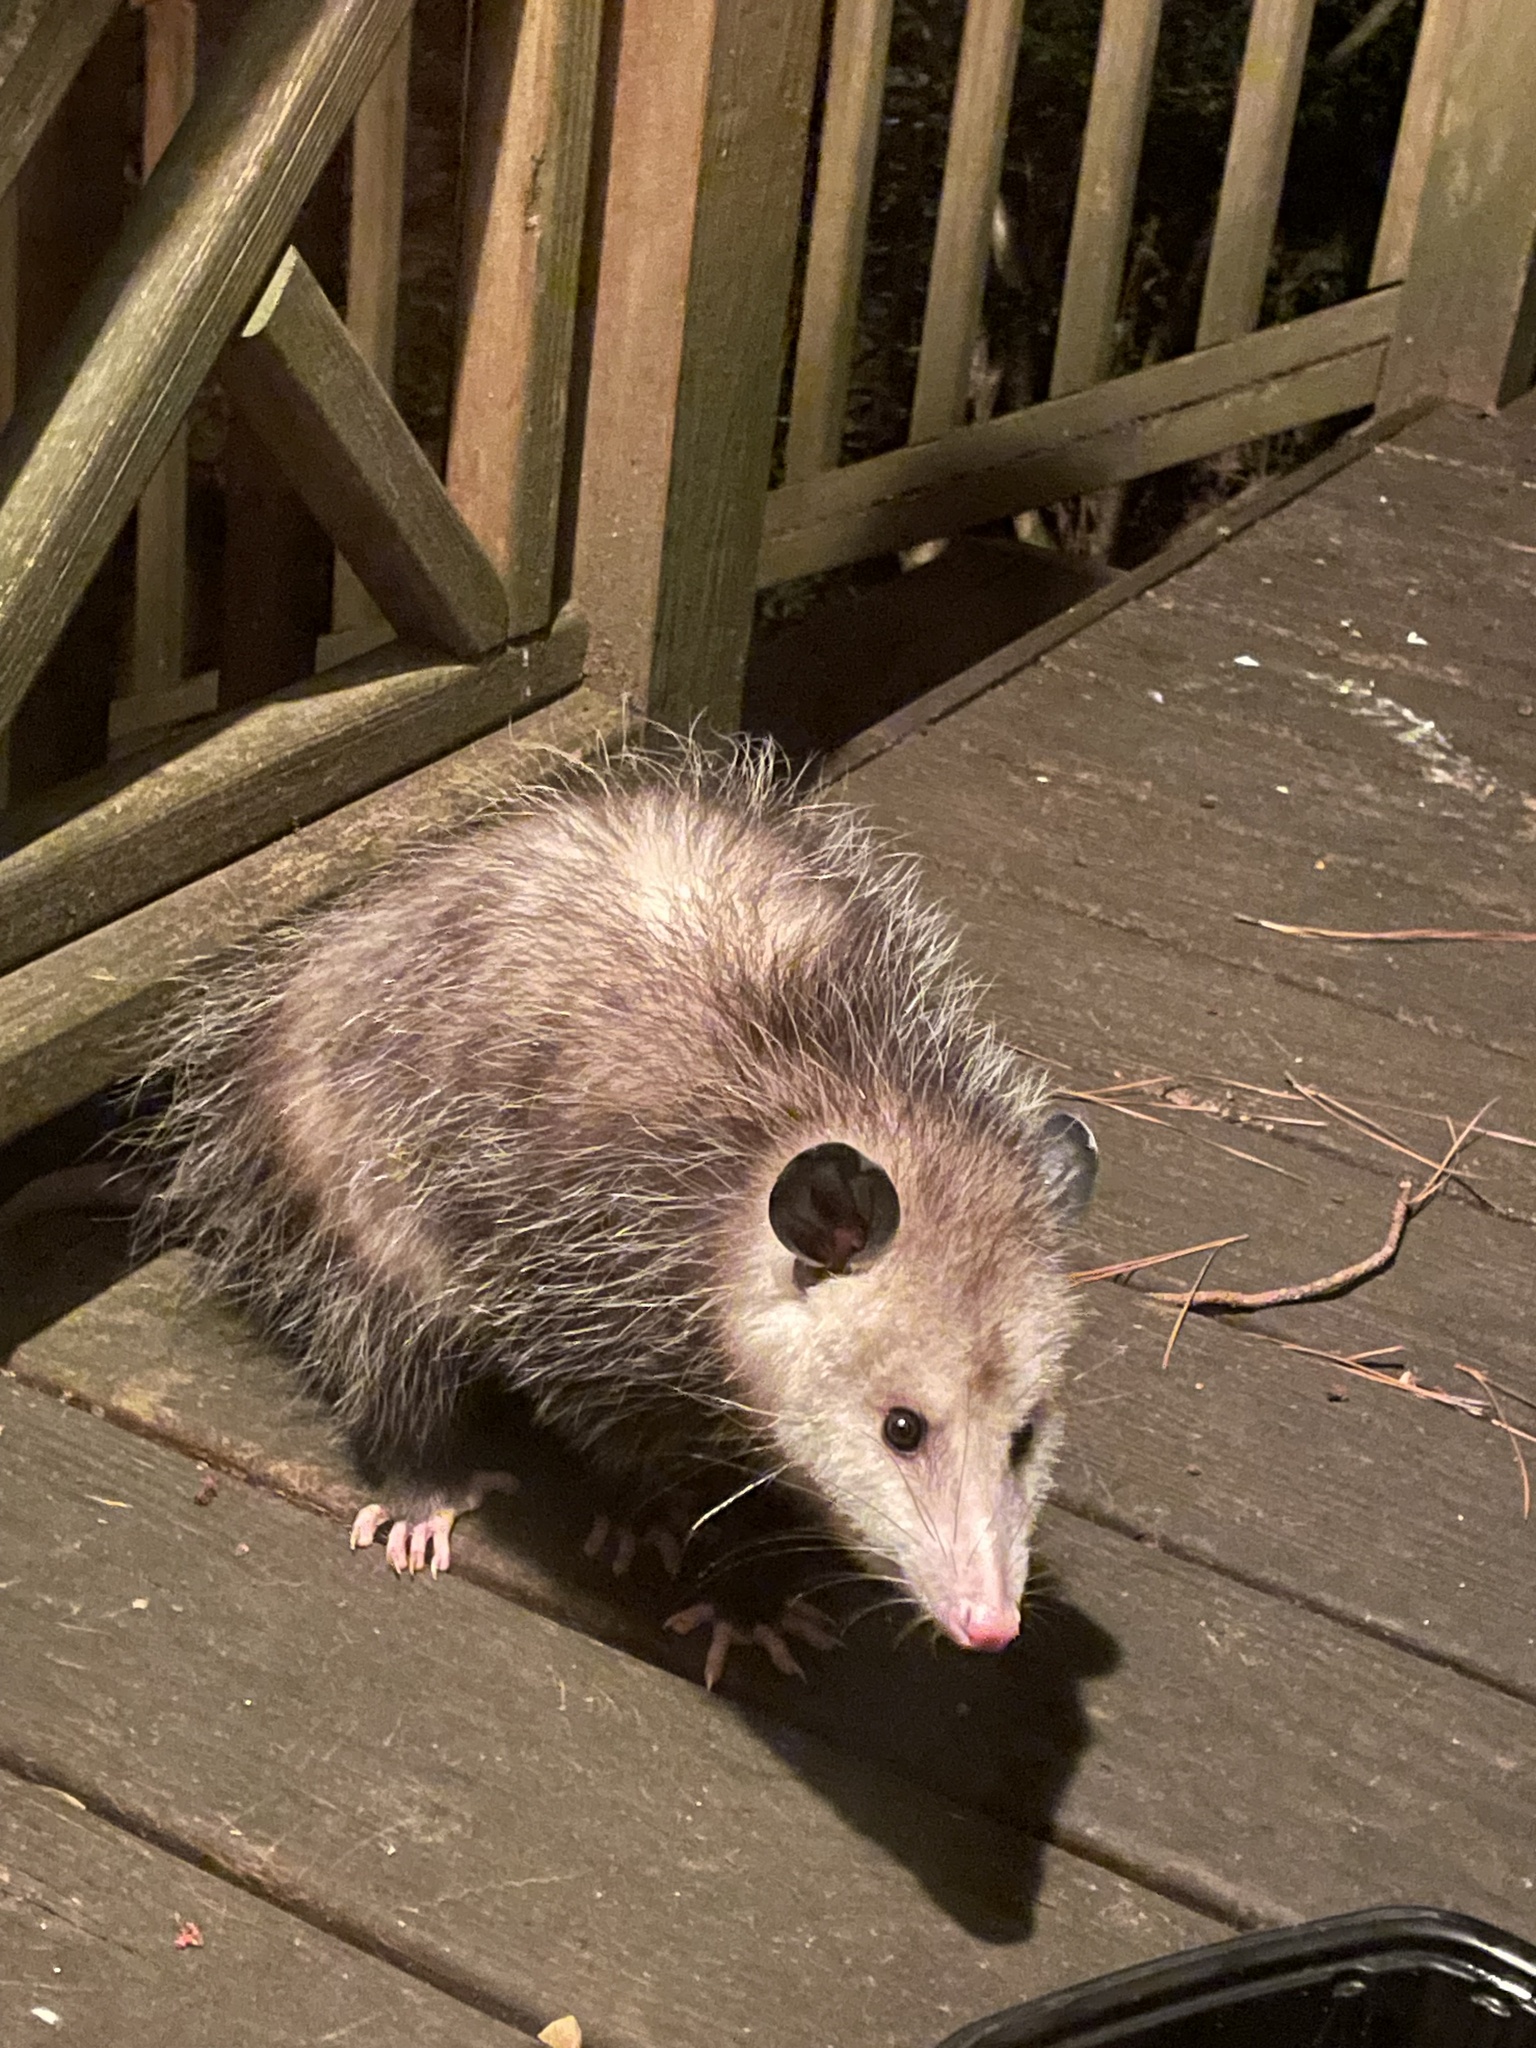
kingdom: Animalia
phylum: Chordata
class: Mammalia
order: Didelphimorphia
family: Didelphidae
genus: Didelphis
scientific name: Didelphis virginiana
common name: Virginia opossum
